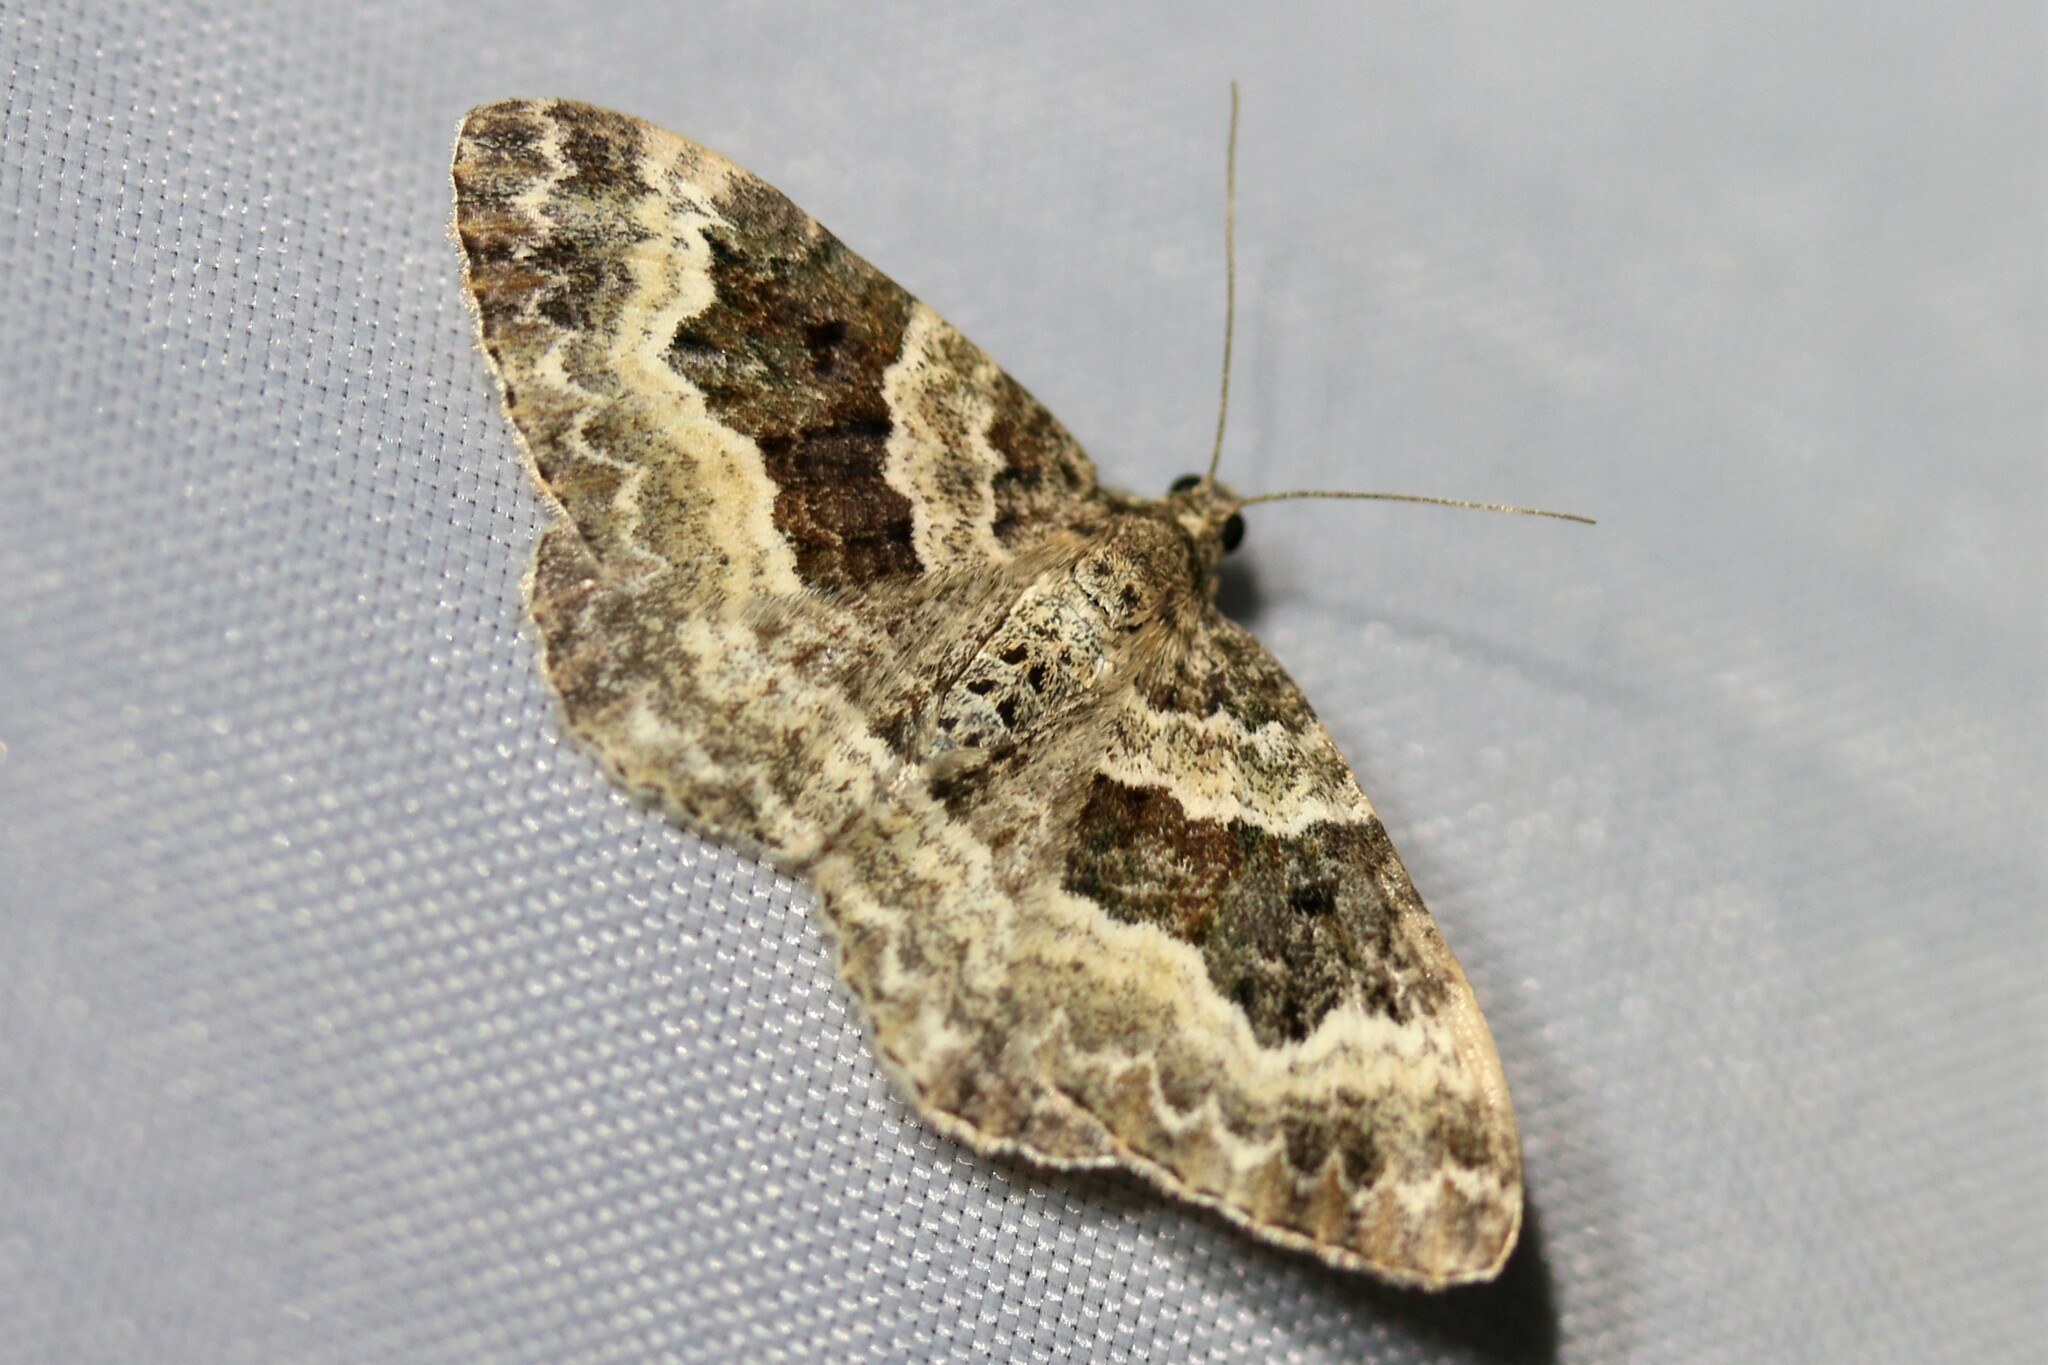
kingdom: Animalia
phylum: Arthropoda
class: Insecta
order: Lepidoptera
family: Geometridae
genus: Epirrhoe
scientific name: Epirrhoe alternata
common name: Common carpet
